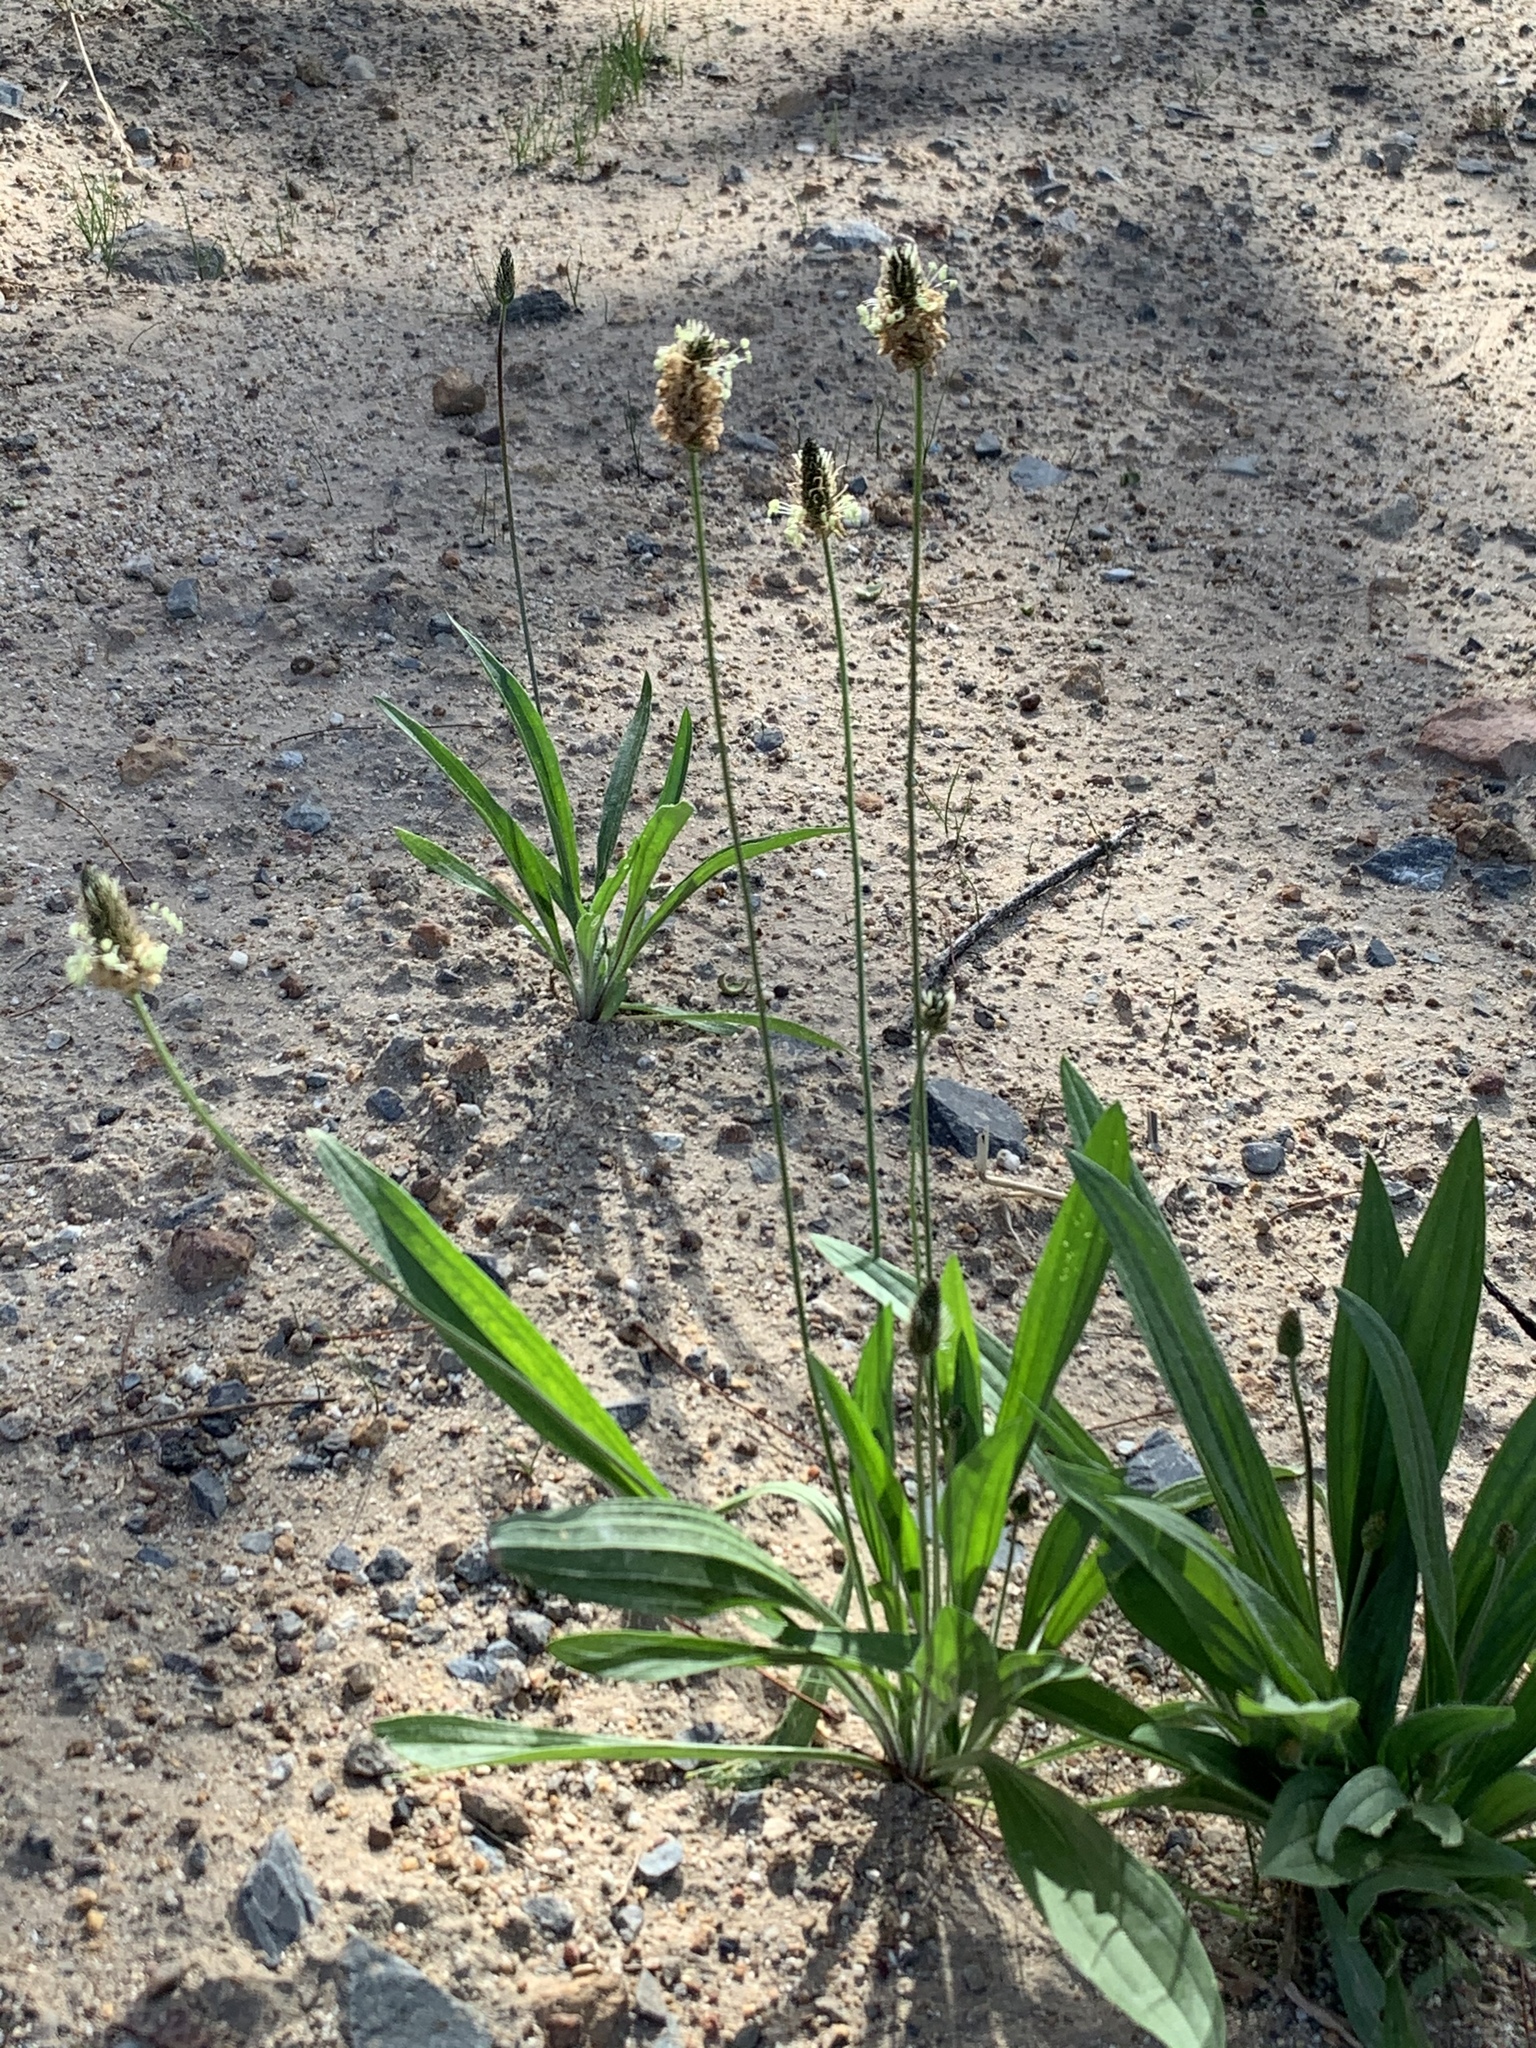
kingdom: Plantae
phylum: Tracheophyta
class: Magnoliopsida
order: Lamiales
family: Plantaginaceae
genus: Plantago
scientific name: Plantago lanceolata
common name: Ribwort plantain
